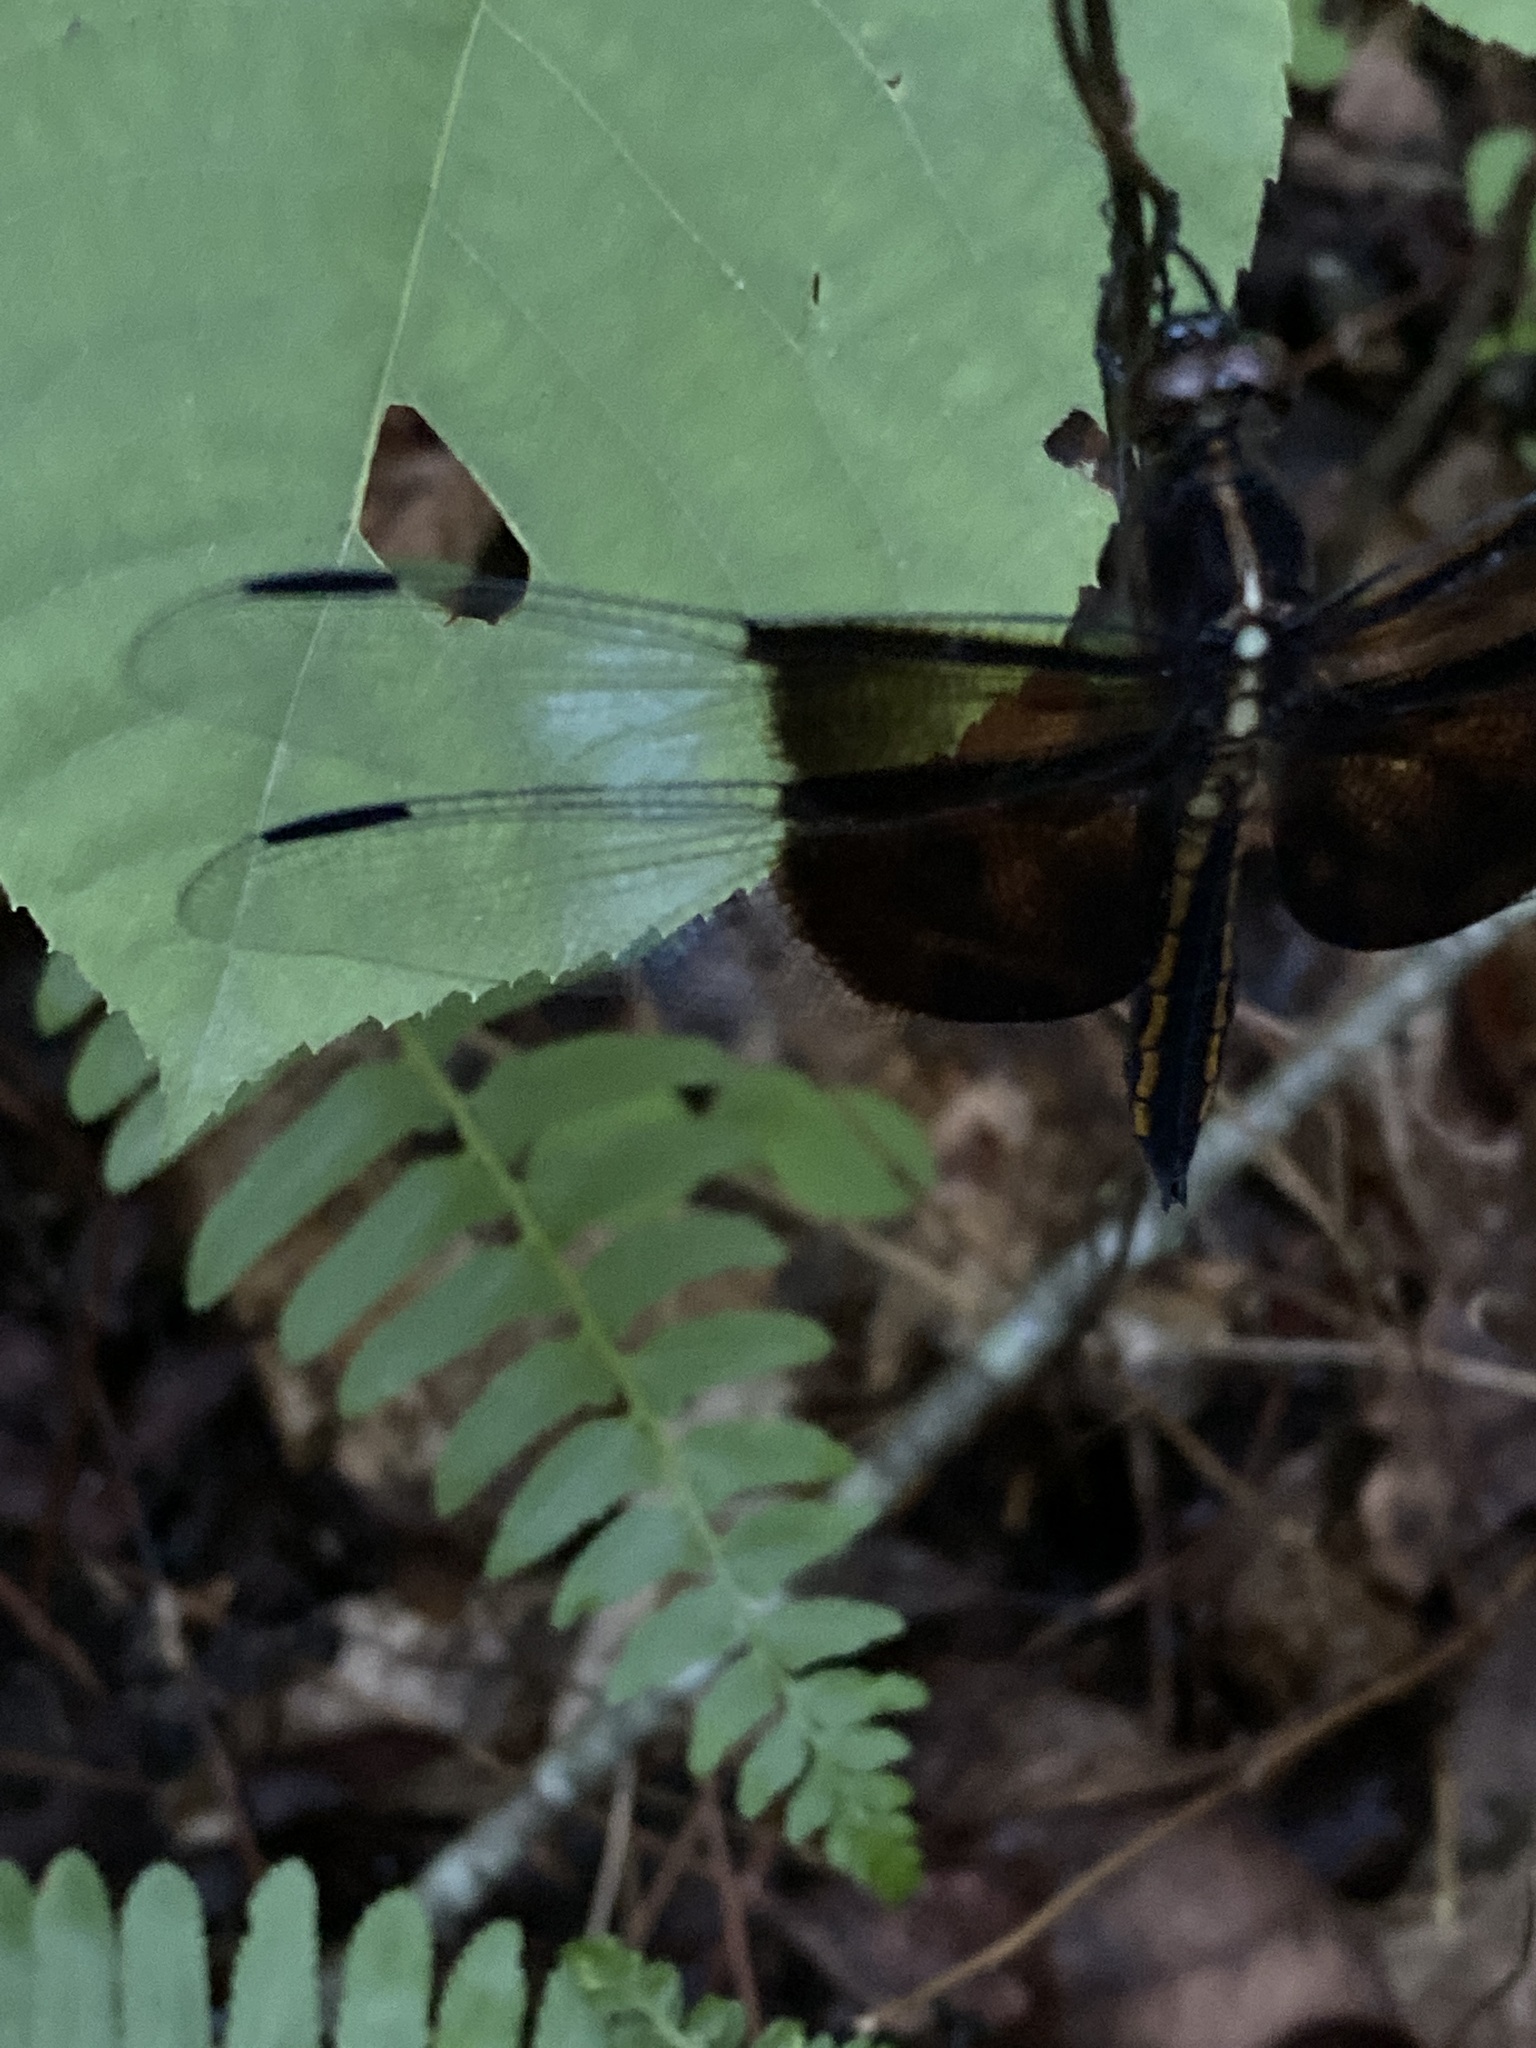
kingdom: Animalia
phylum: Arthropoda
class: Insecta
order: Odonata
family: Libellulidae
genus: Libellula
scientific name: Libellula luctuosa
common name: Widow skimmer
